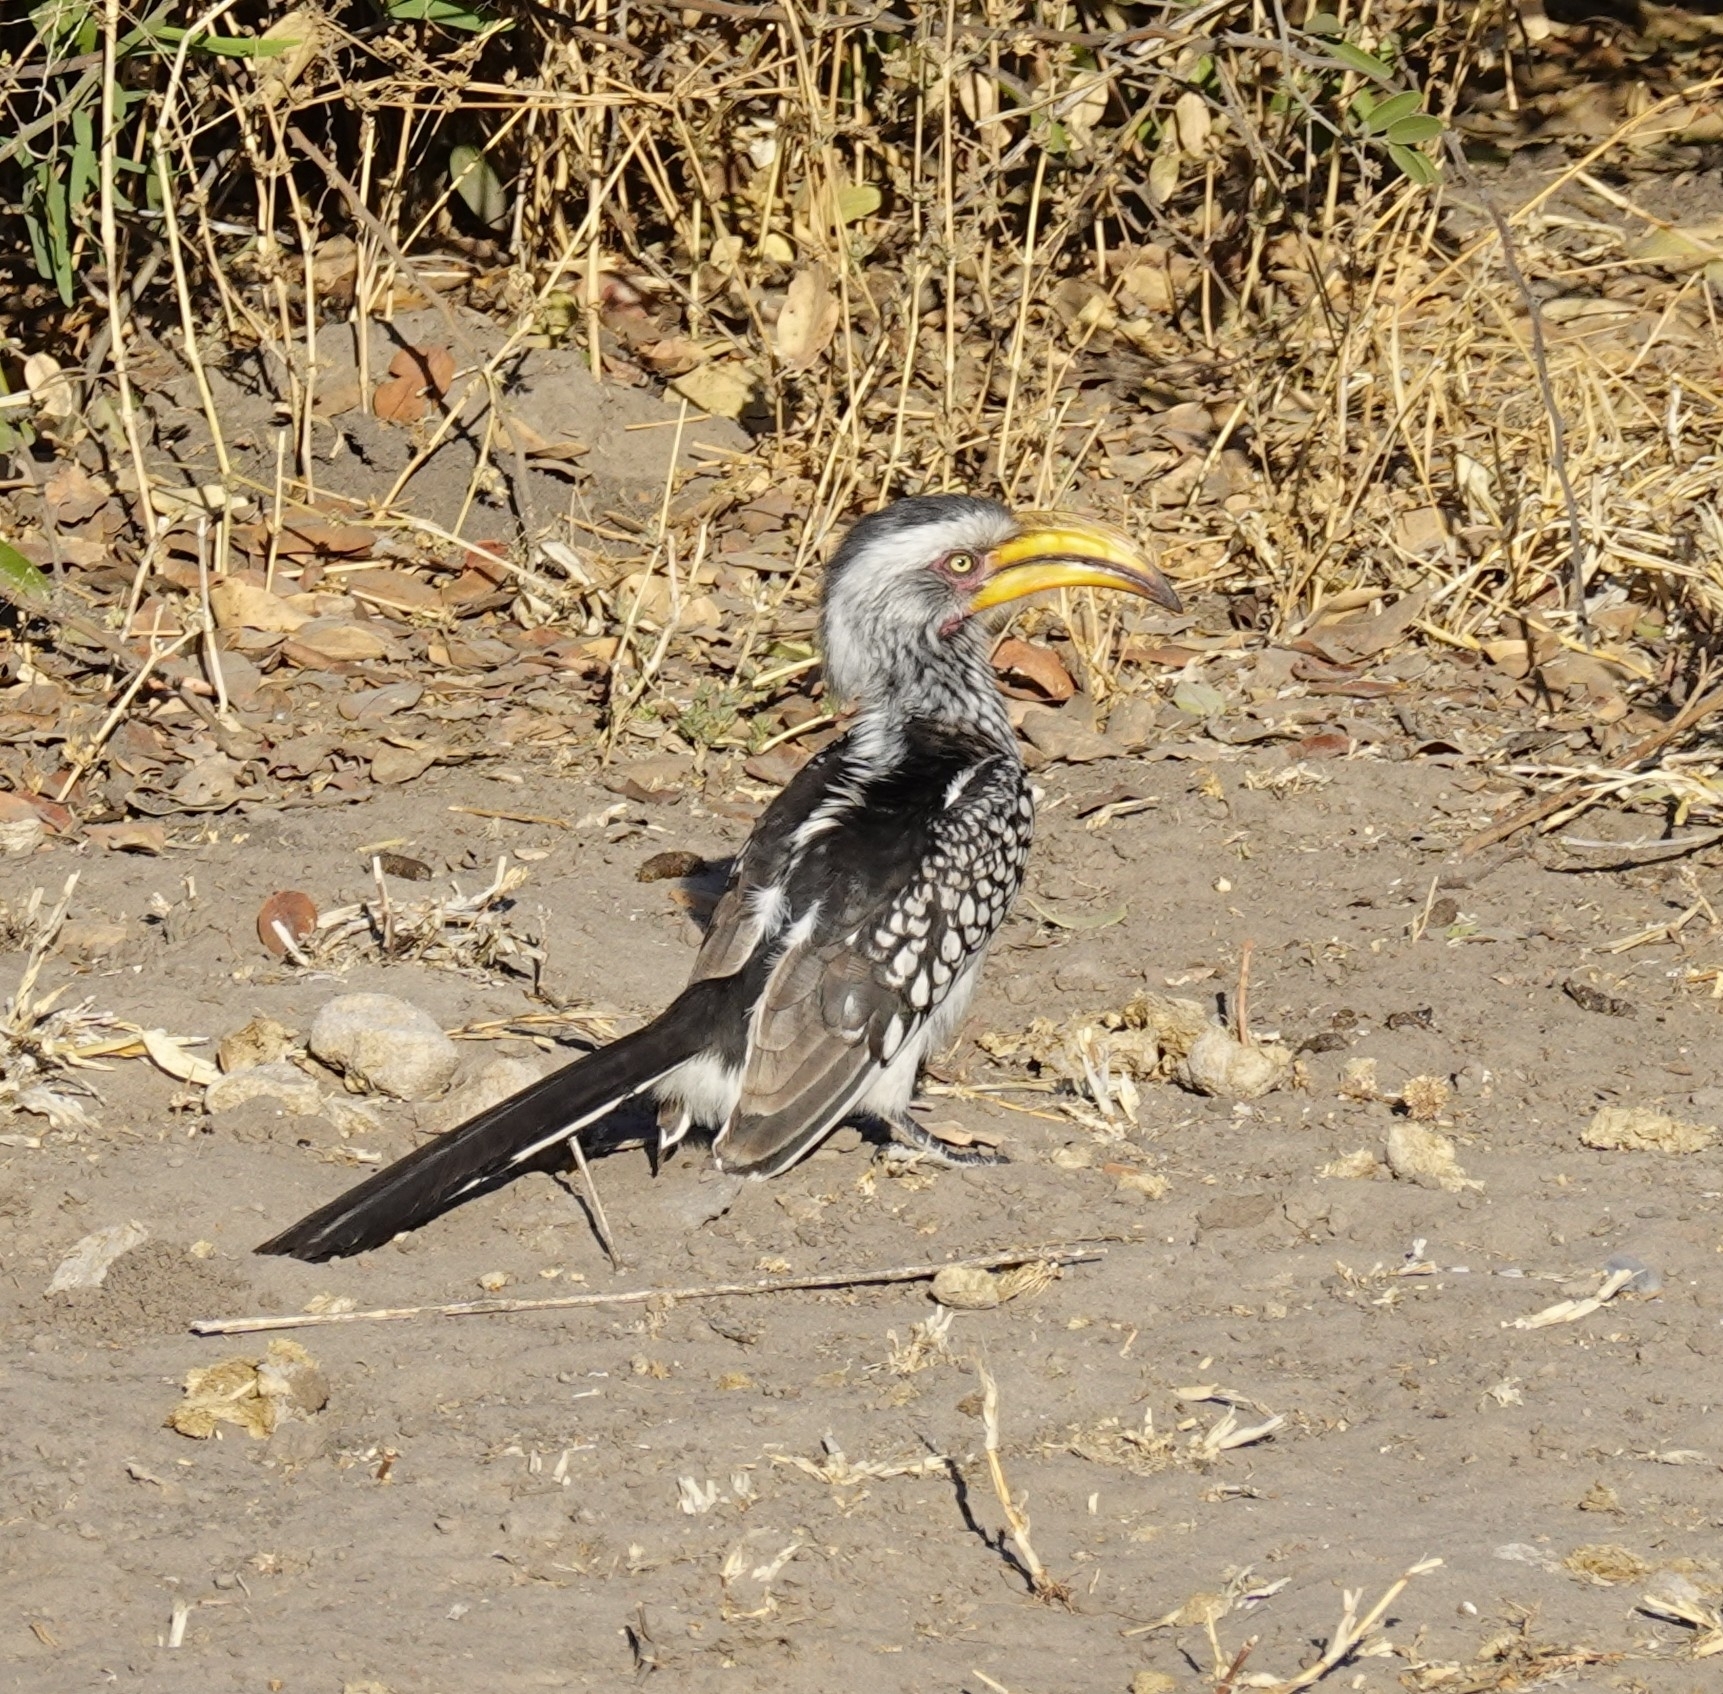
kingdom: Animalia
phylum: Chordata
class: Aves
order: Bucerotiformes
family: Bucerotidae
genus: Tockus
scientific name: Tockus leucomelas
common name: Southern yellow-billed hornbill
